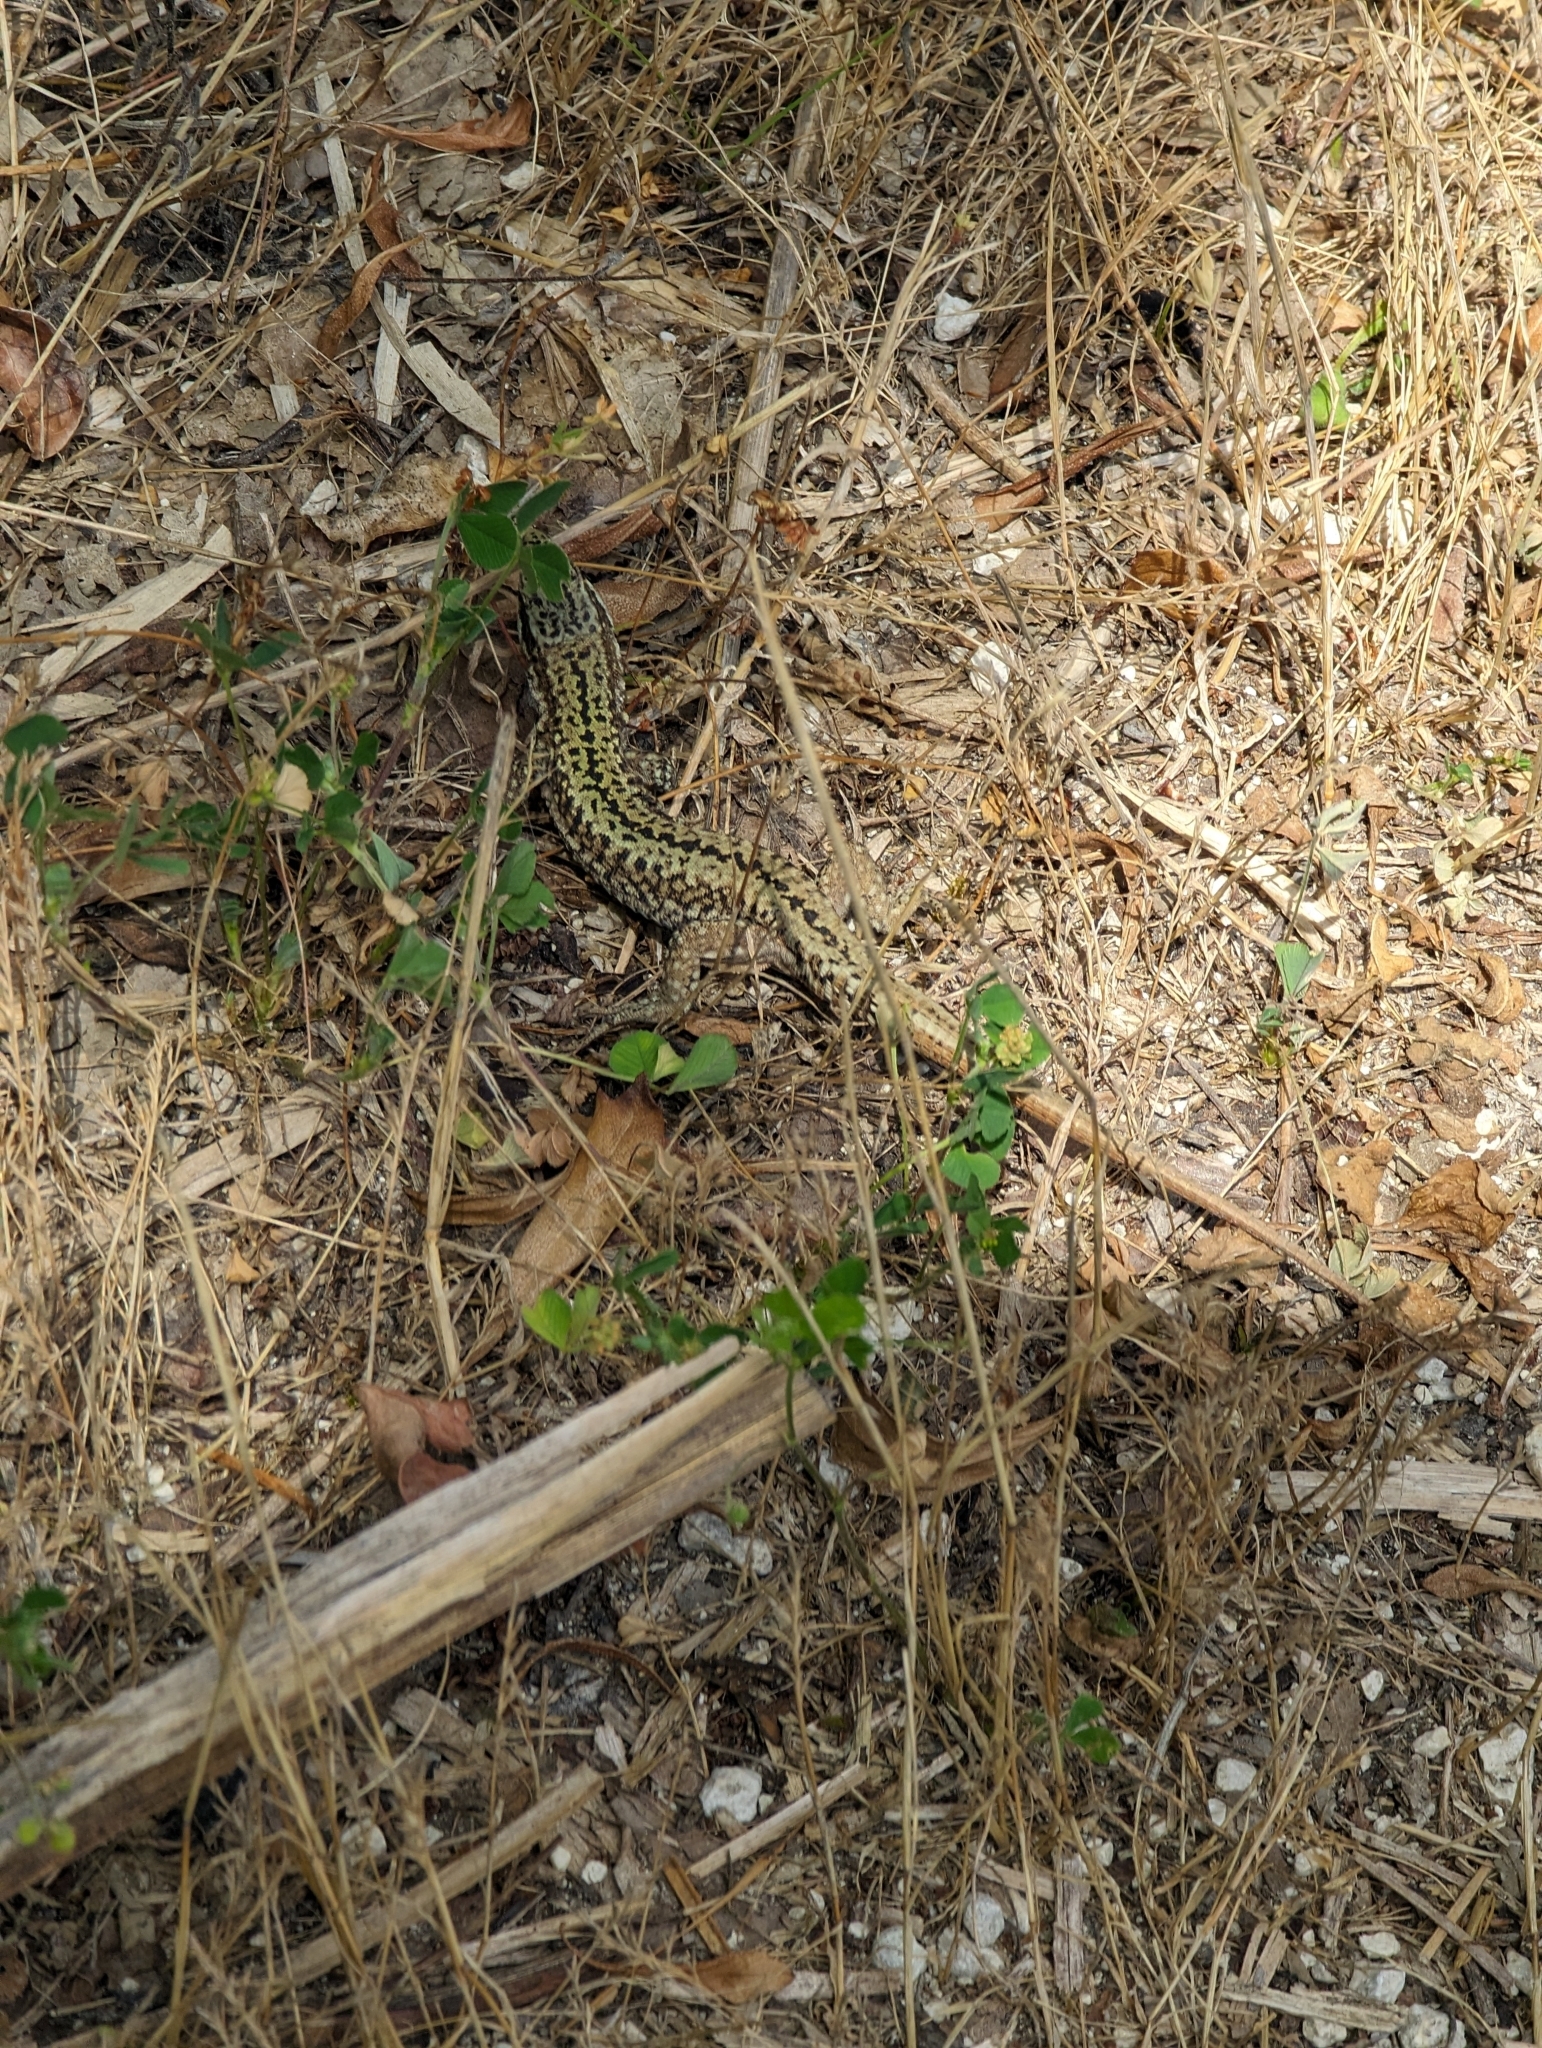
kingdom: Animalia
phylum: Chordata
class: Squamata
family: Lacertidae
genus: Podarcis
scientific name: Podarcis muralis
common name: Common wall lizard
